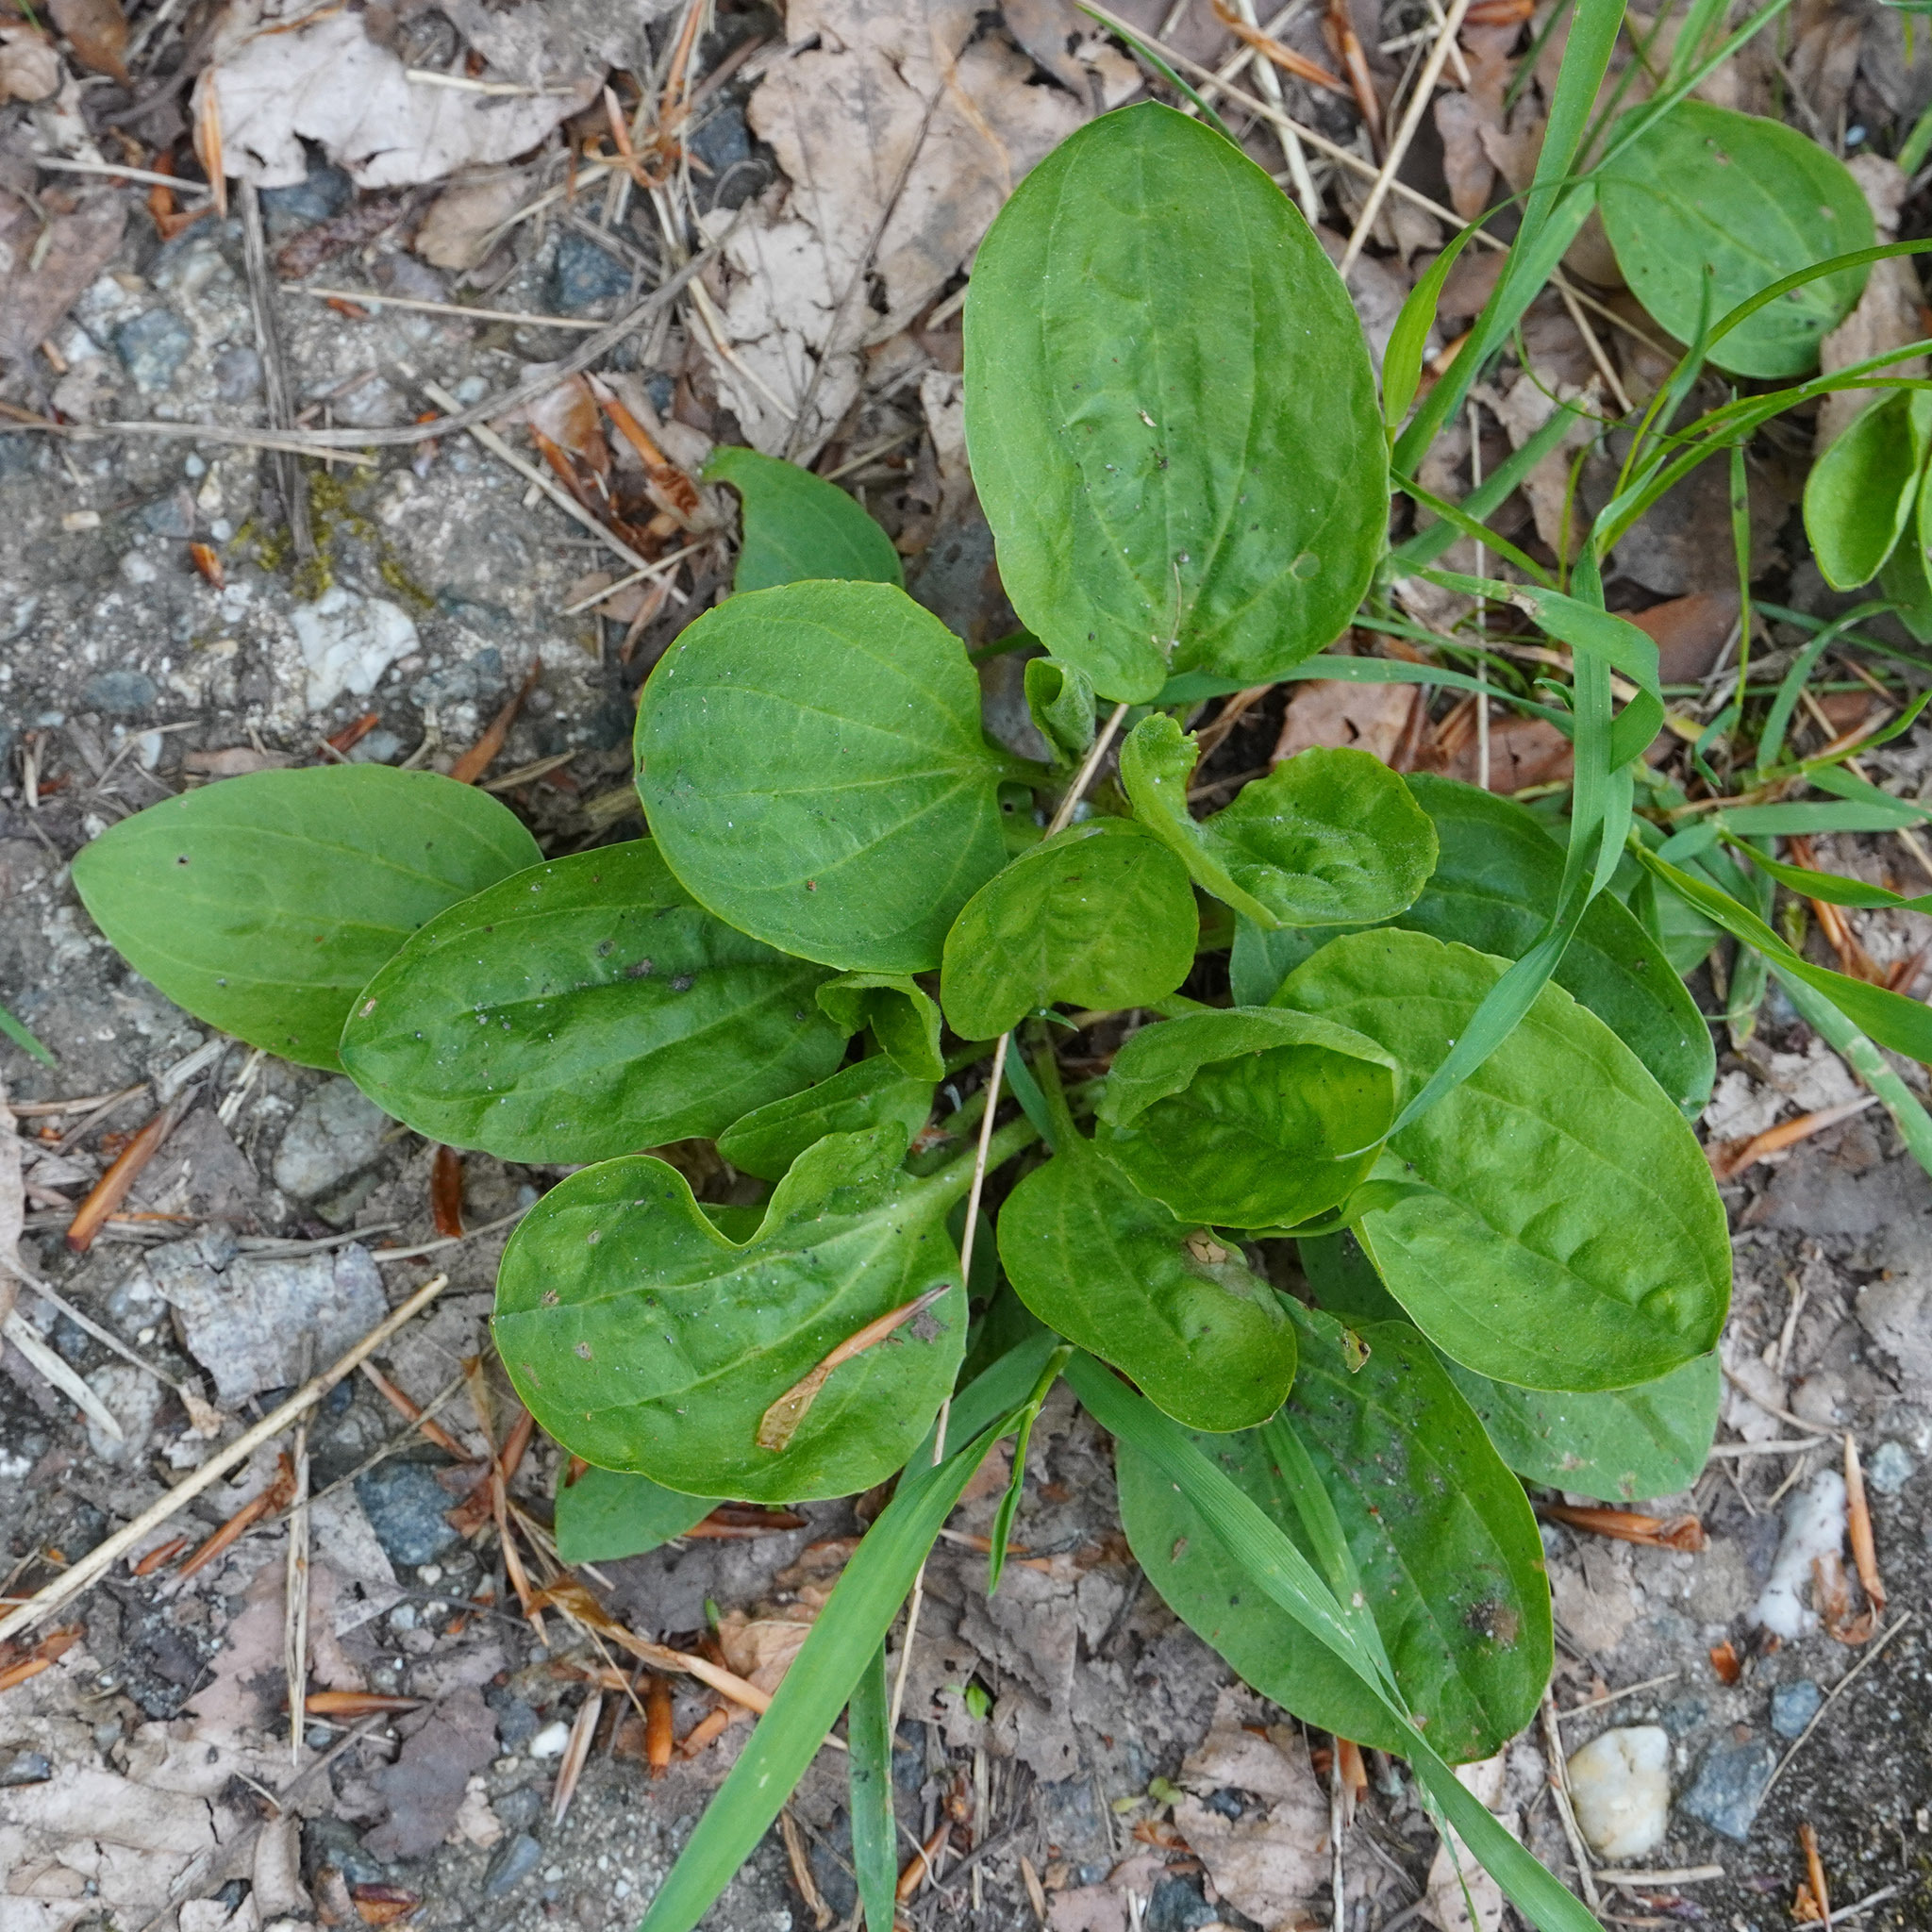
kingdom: Plantae
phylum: Tracheophyta
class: Magnoliopsida
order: Lamiales
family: Plantaginaceae
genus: Plantago
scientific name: Plantago major
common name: Common plantain
